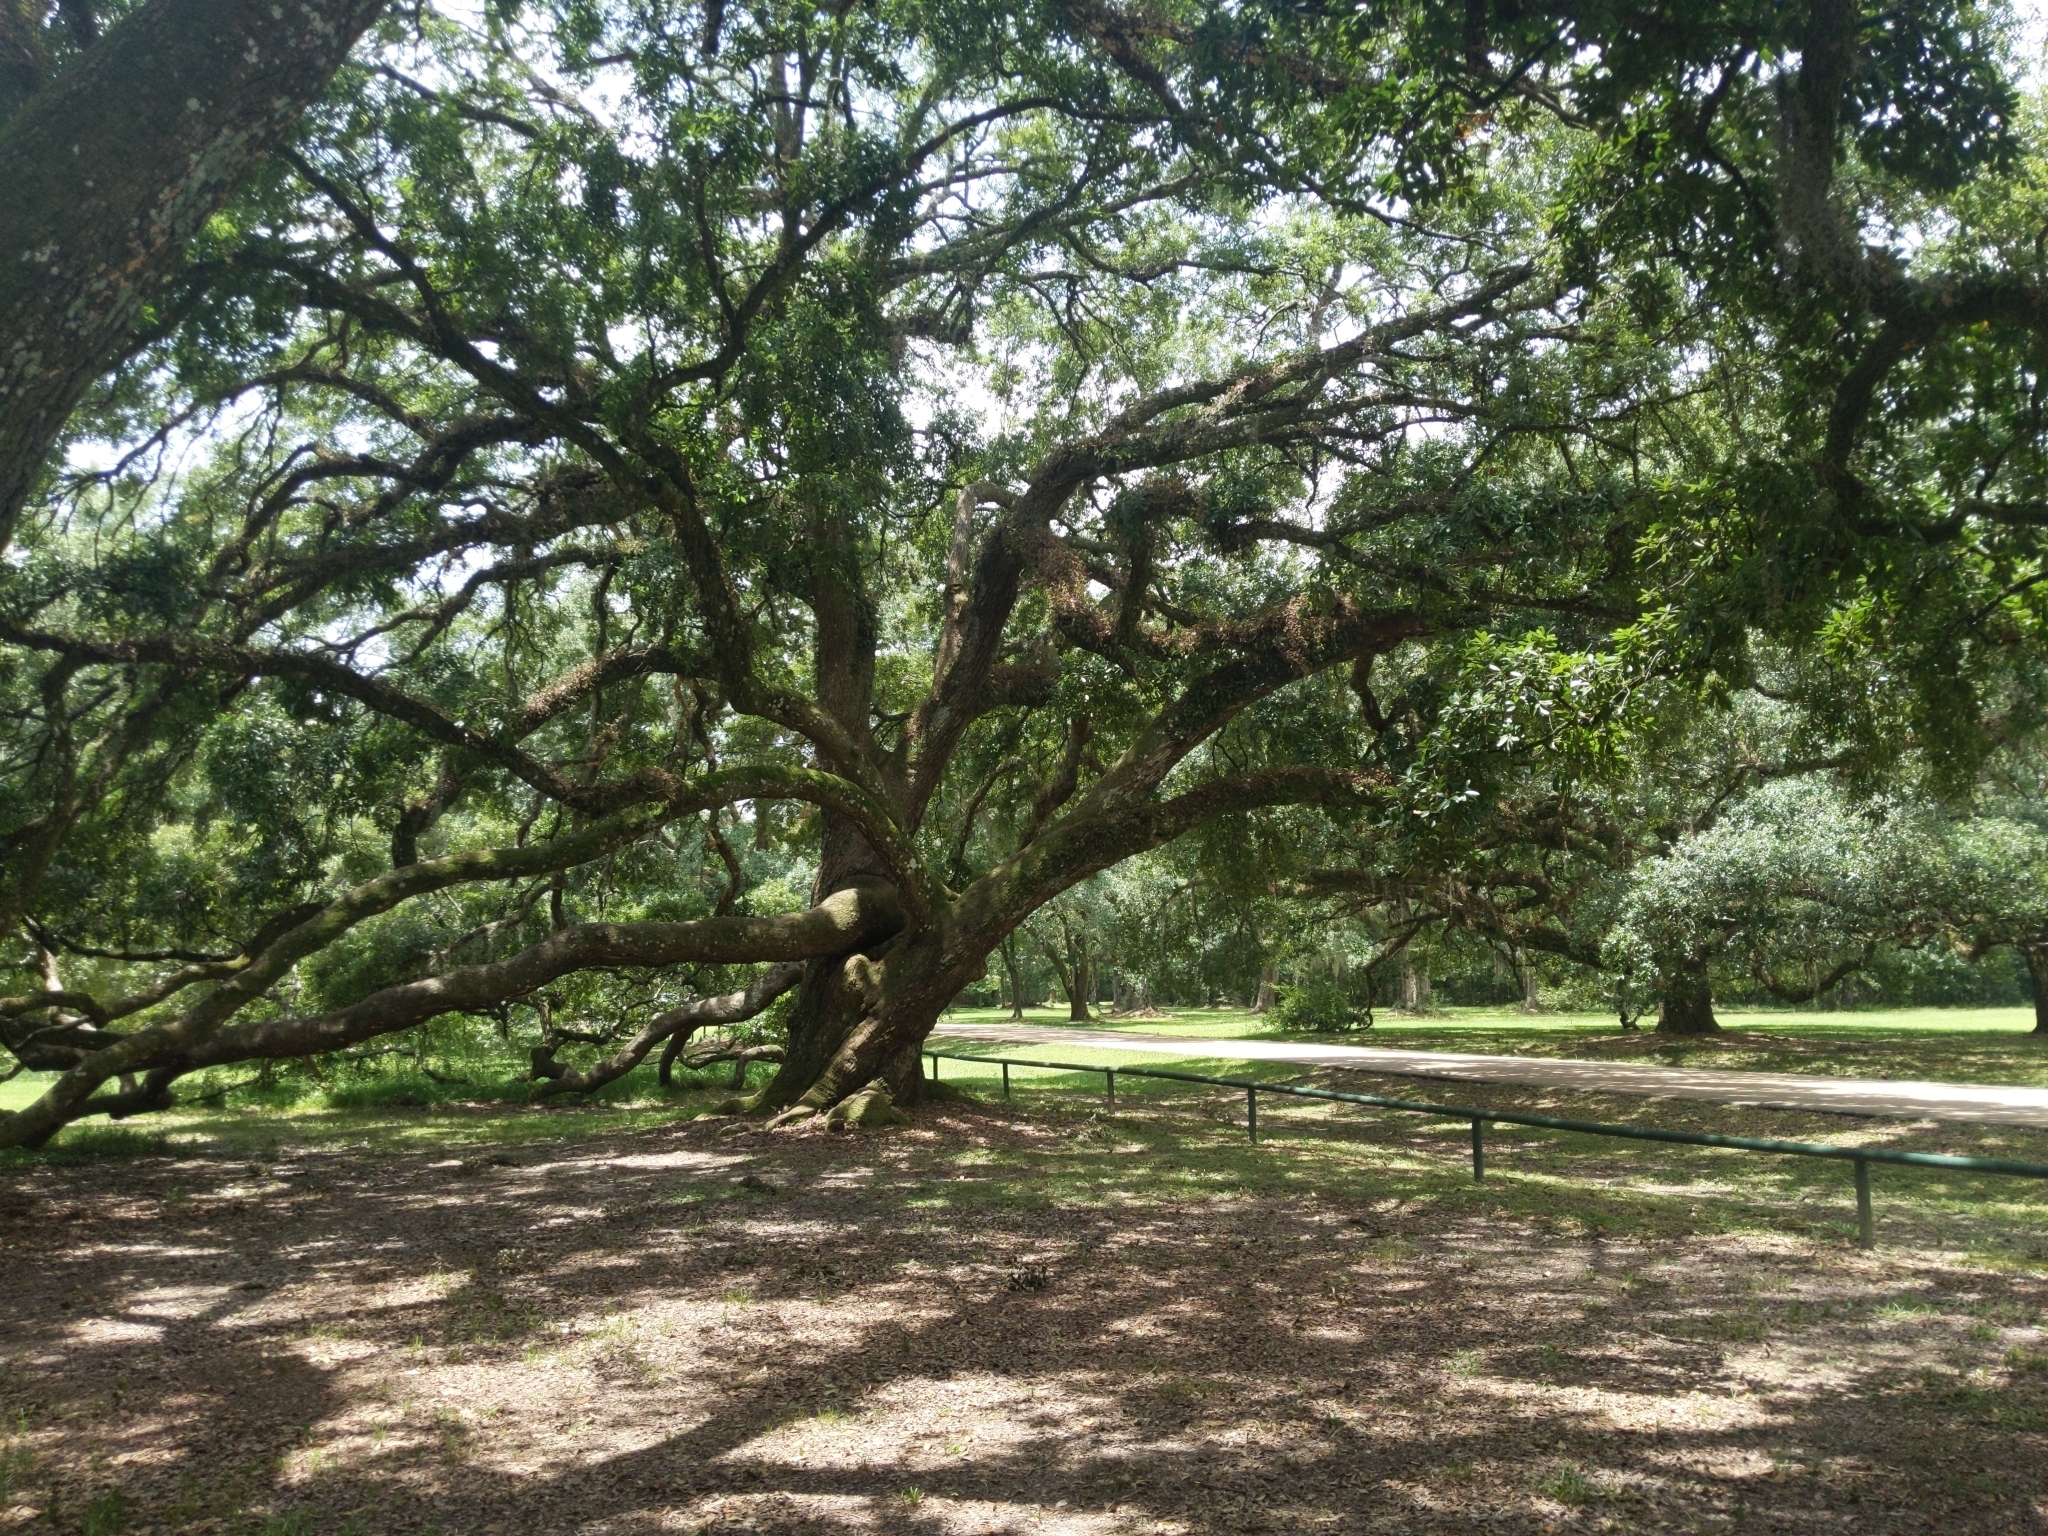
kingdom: Plantae
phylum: Tracheophyta
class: Magnoliopsida
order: Fagales
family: Fagaceae
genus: Quercus
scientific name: Quercus virginiana
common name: Southern live oak
